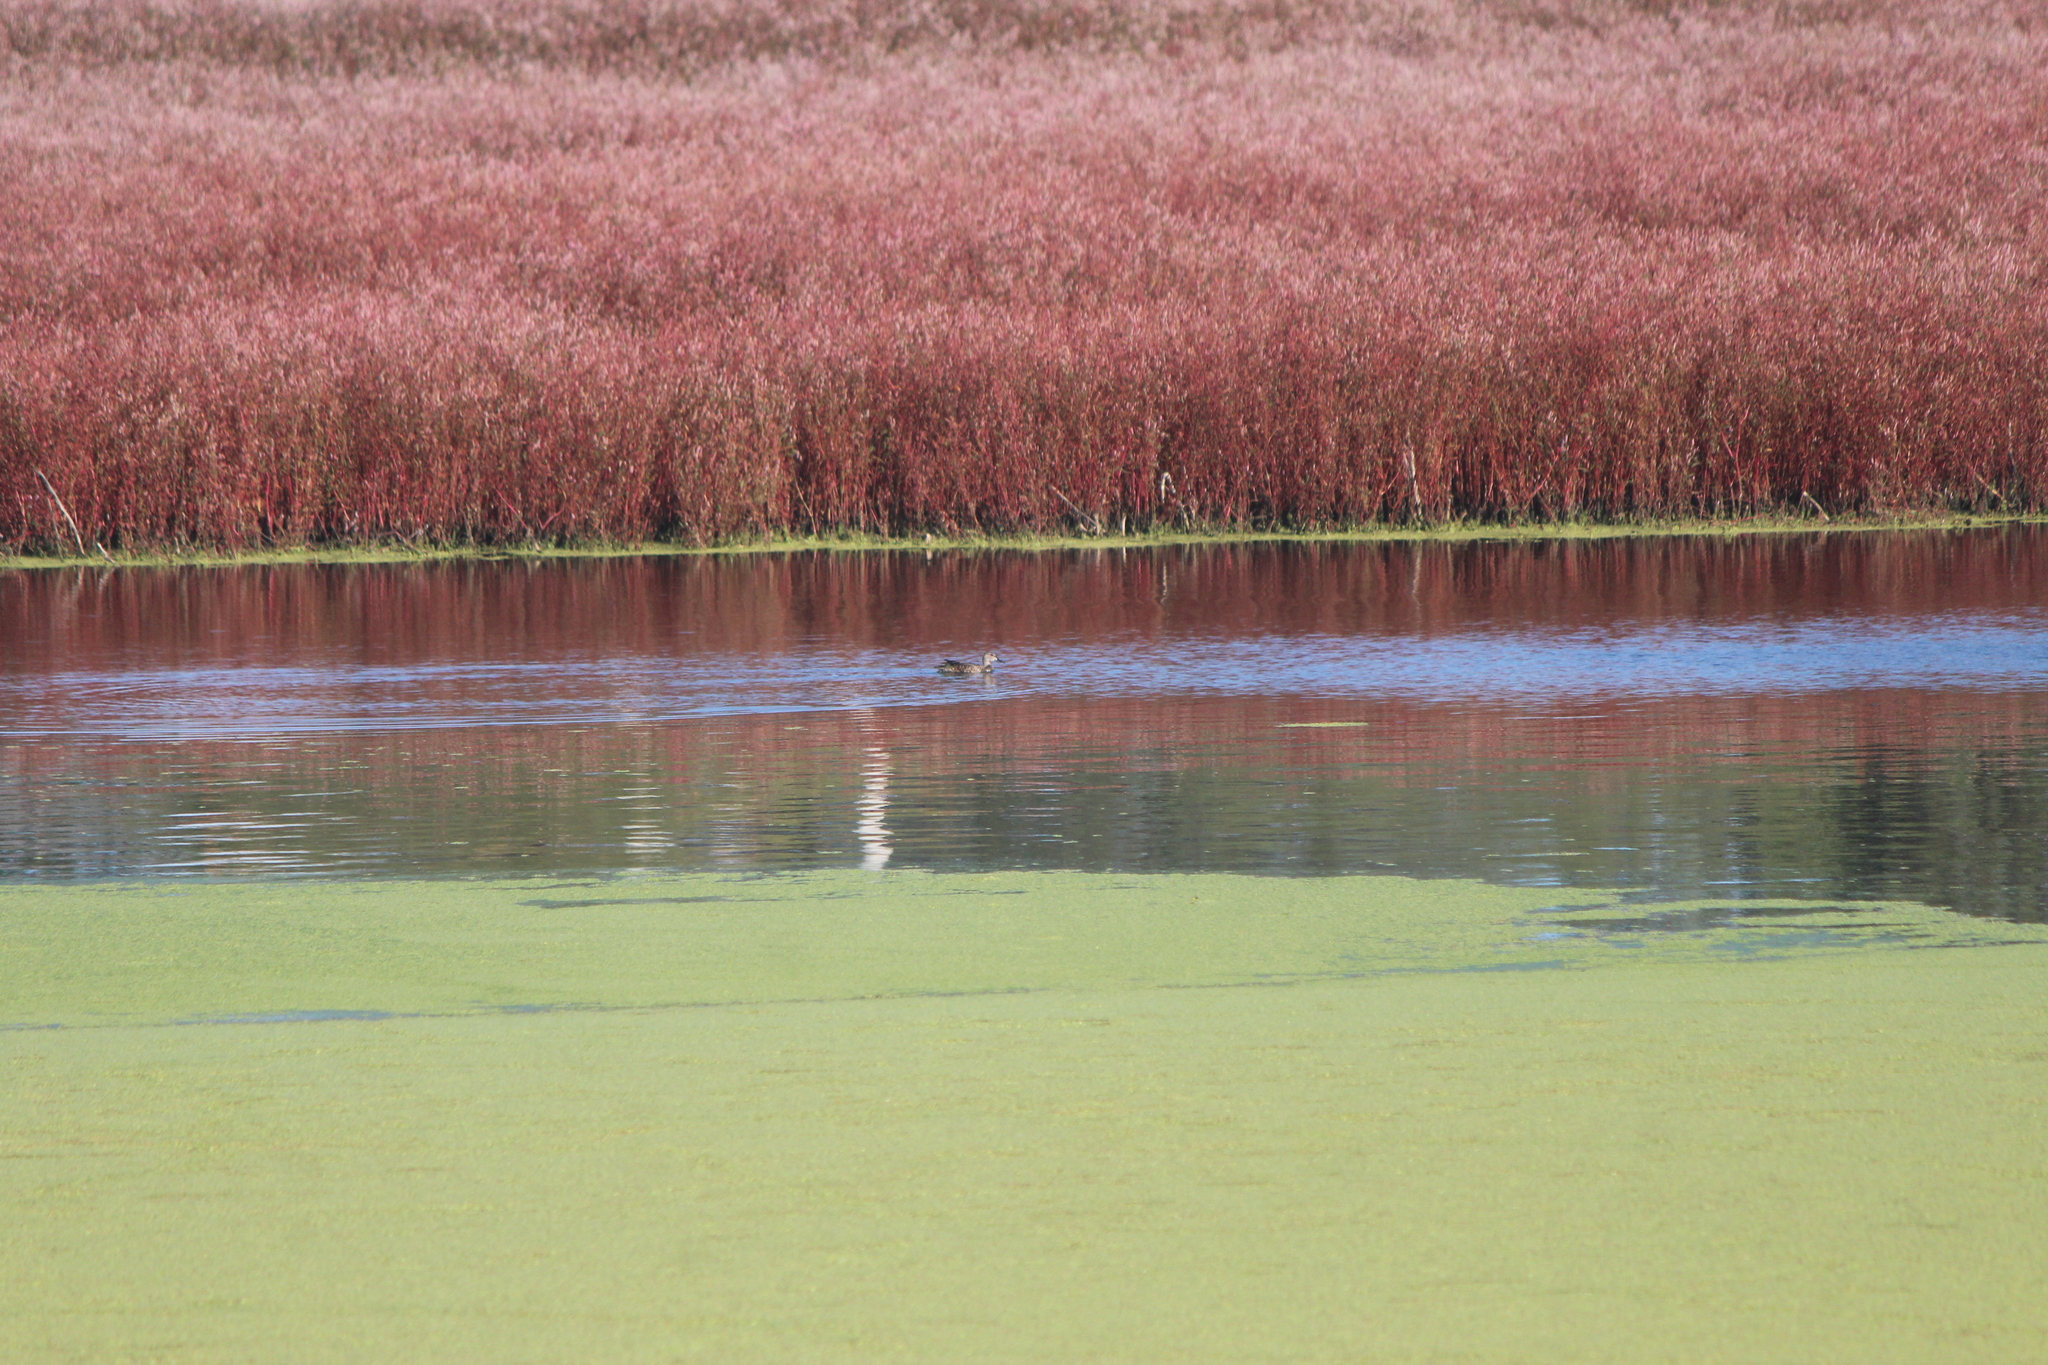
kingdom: Animalia
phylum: Chordata
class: Aves
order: Anseriformes
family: Anatidae
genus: Spatula
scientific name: Spatula discors
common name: Blue-winged teal
